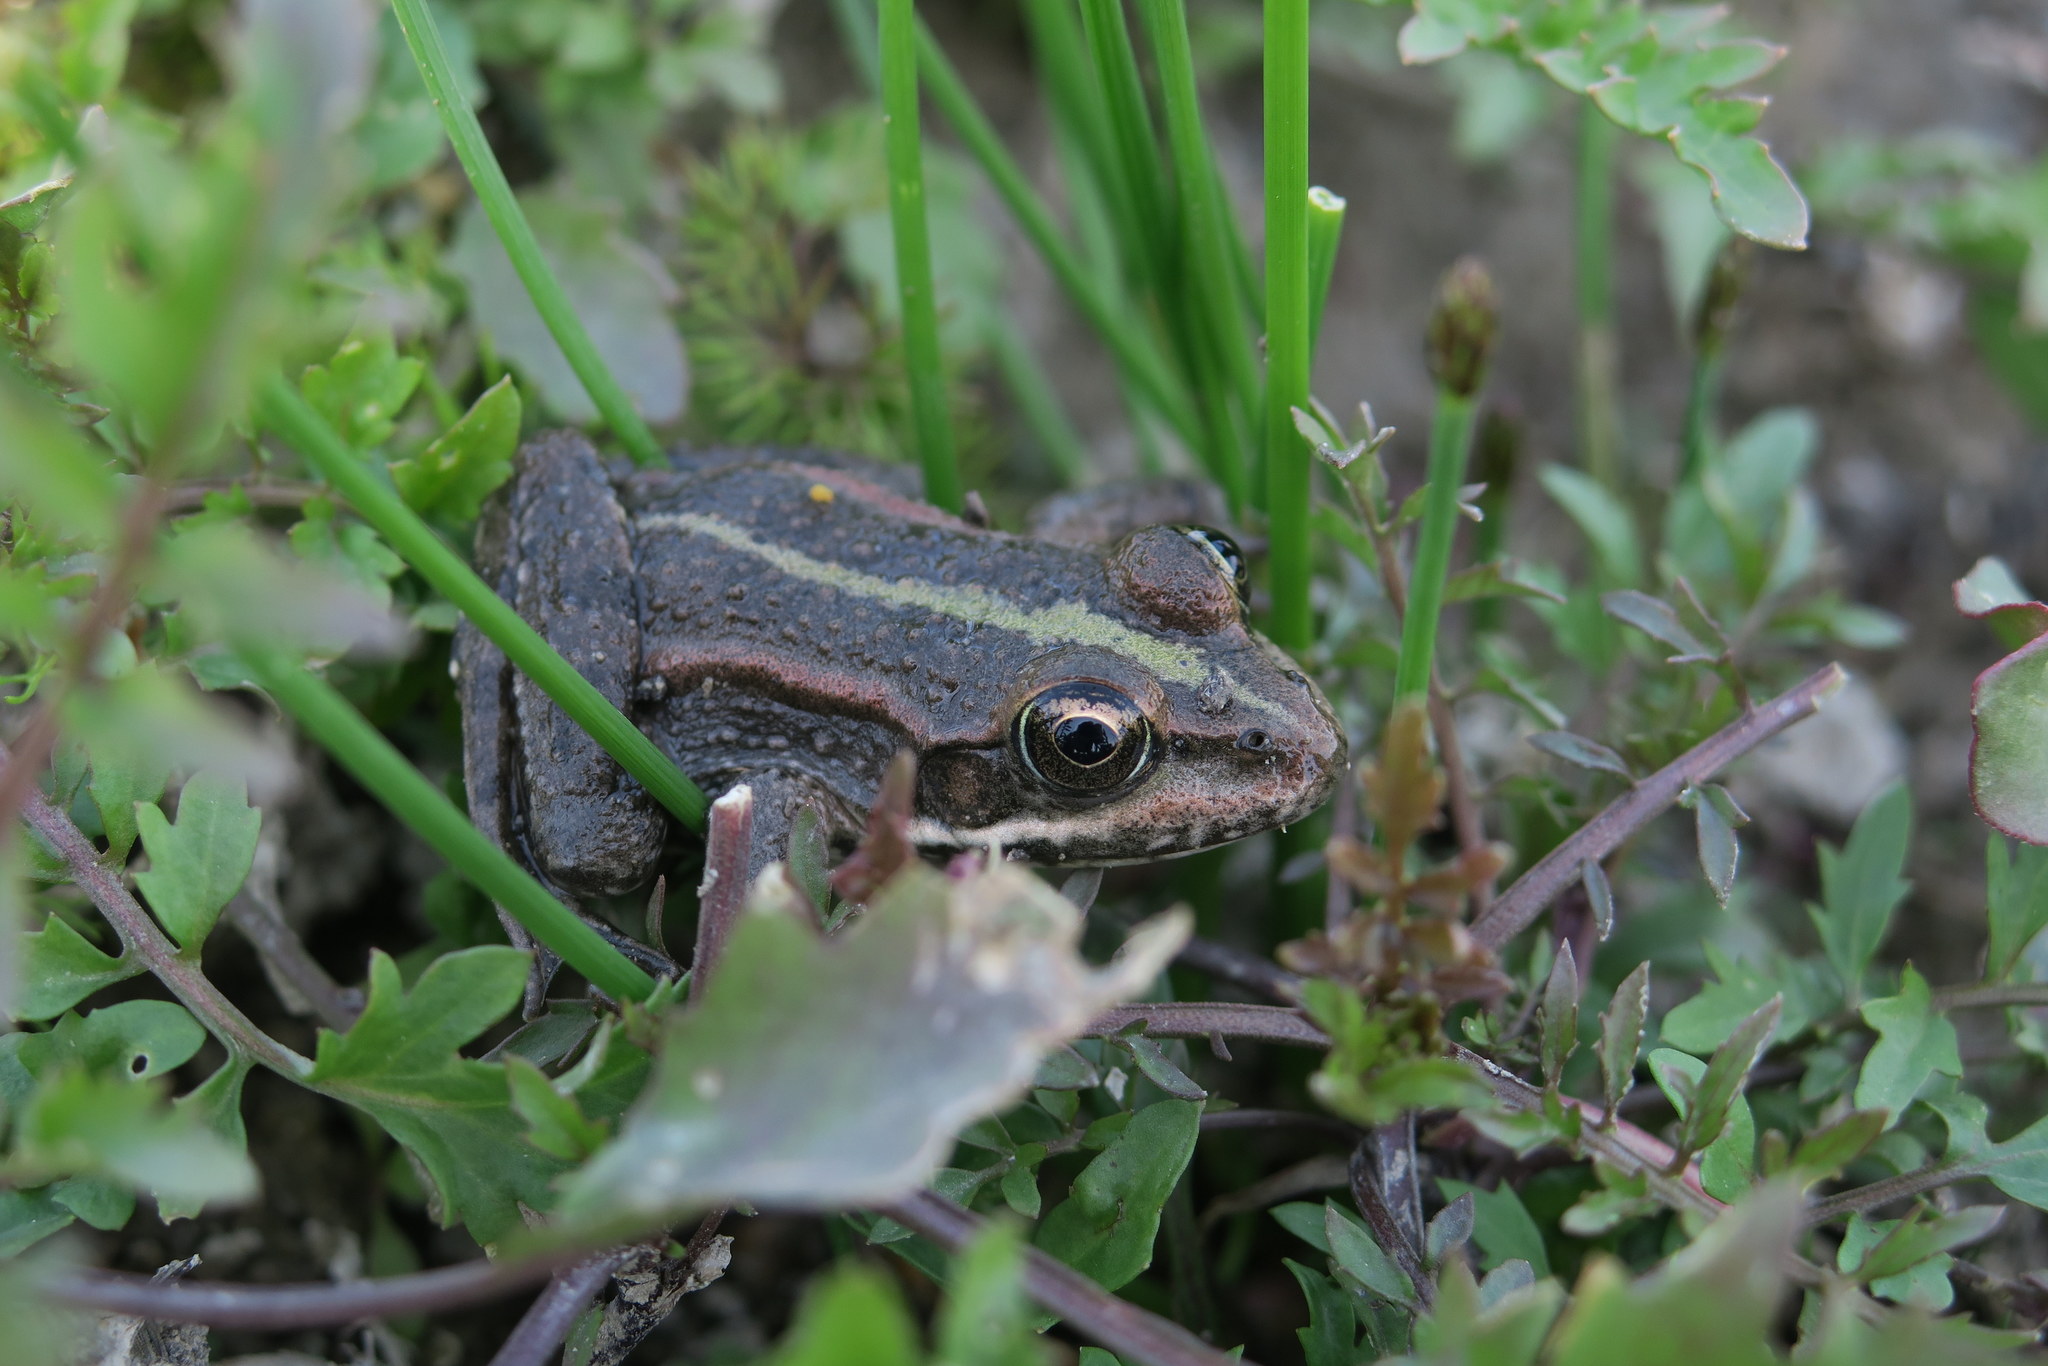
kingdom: Animalia
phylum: Chordata
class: Amphibia
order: Anura
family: Ranidae
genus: Pelophylax
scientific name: Pelophylax ridibundus
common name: Marsh frog
